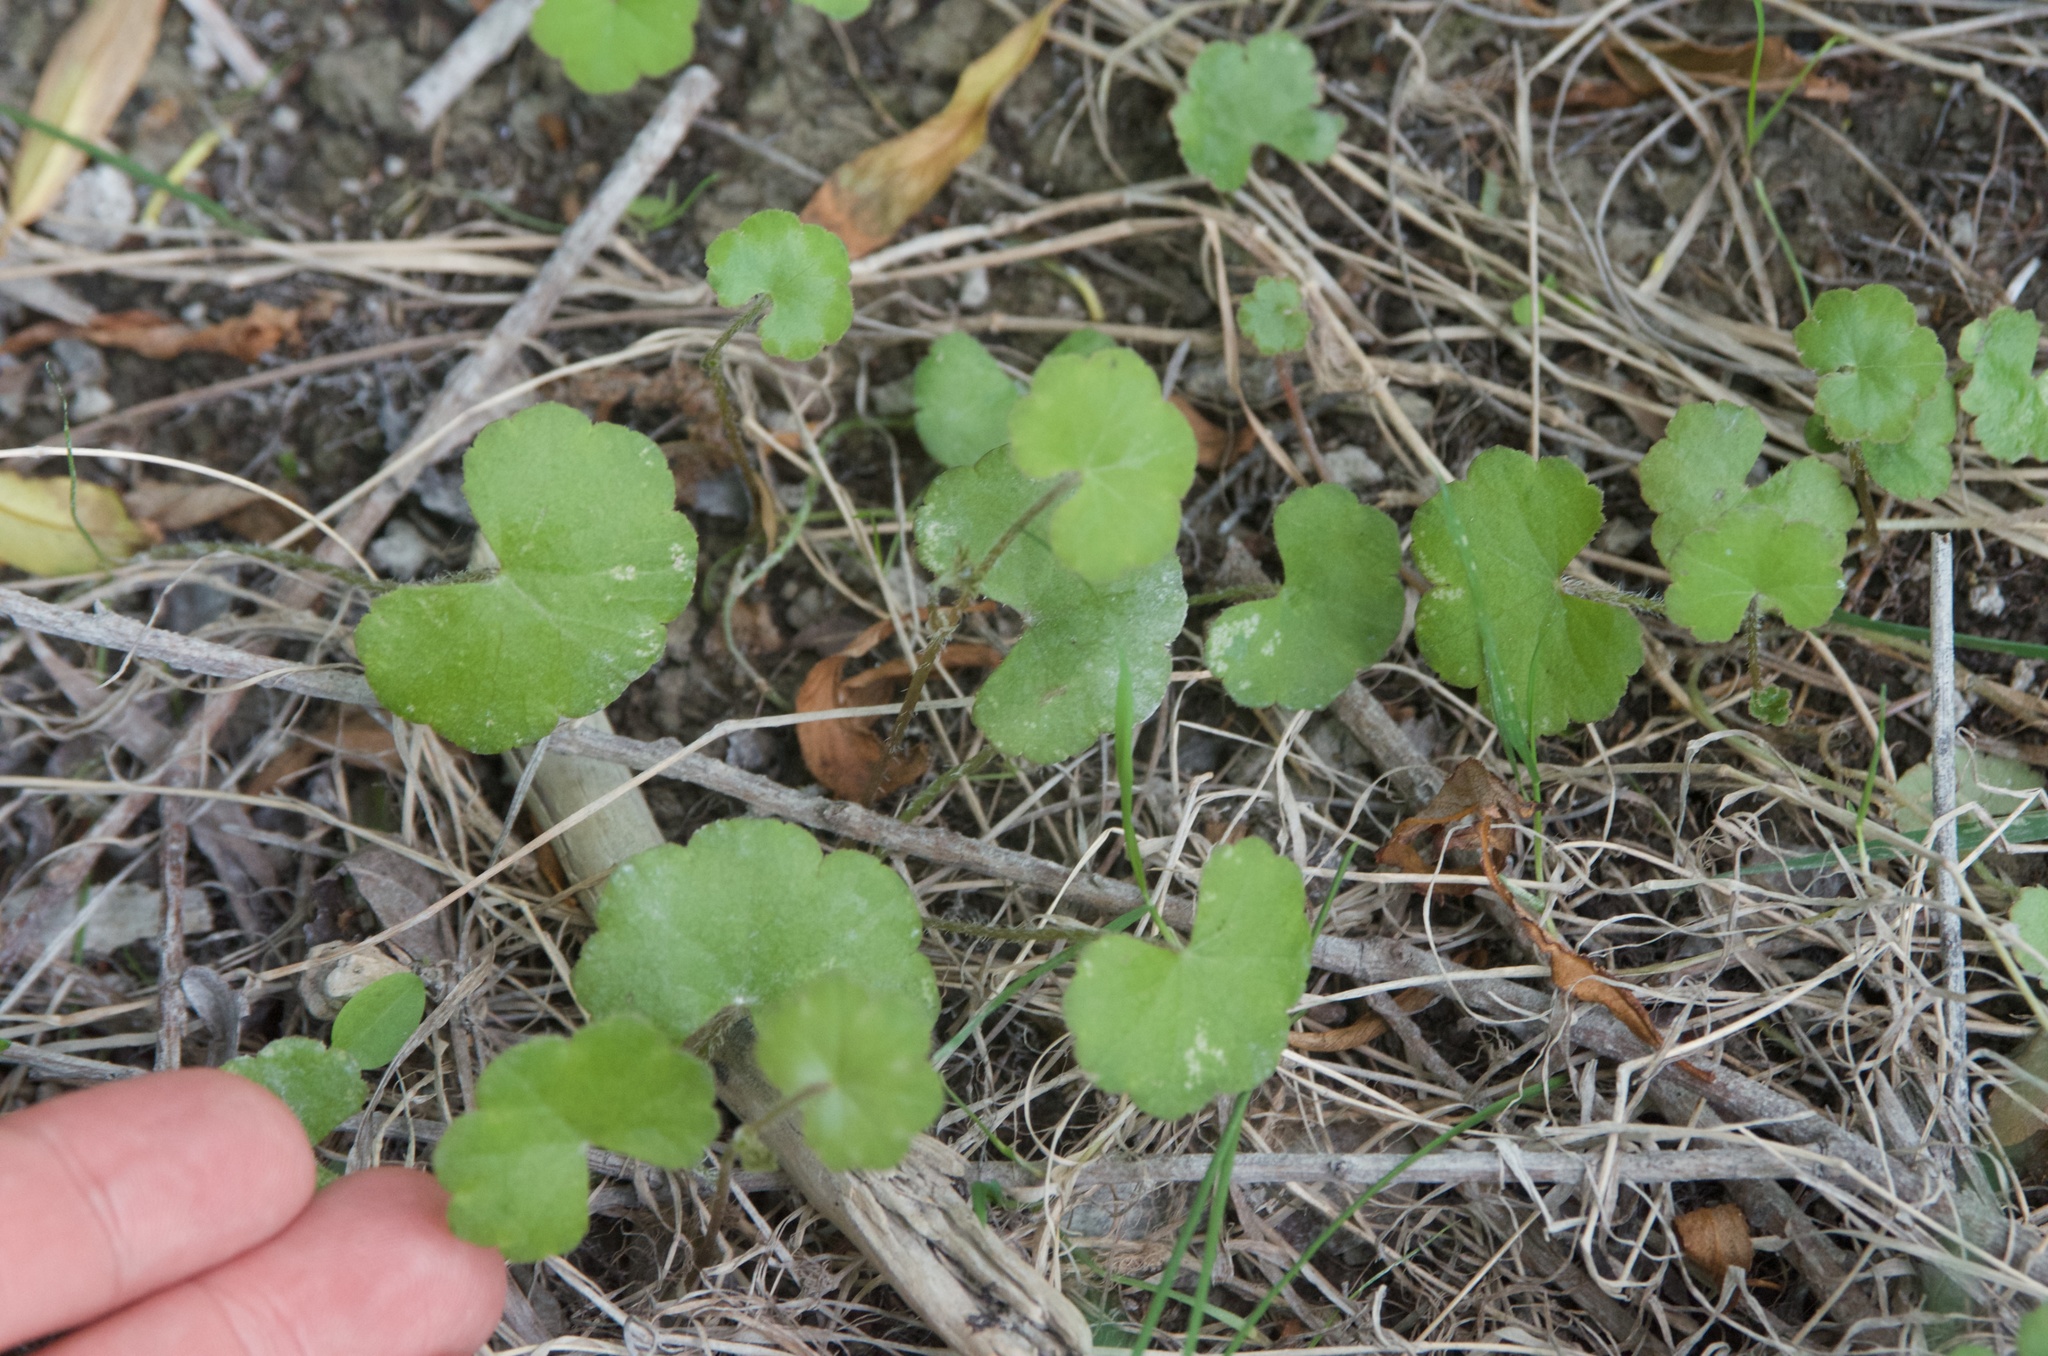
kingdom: Plantae
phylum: Tracheophyta
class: Magnoliopsida
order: Apiales
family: Araliaceae
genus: Hydrocotyle
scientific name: Hydrocotyle robusta
